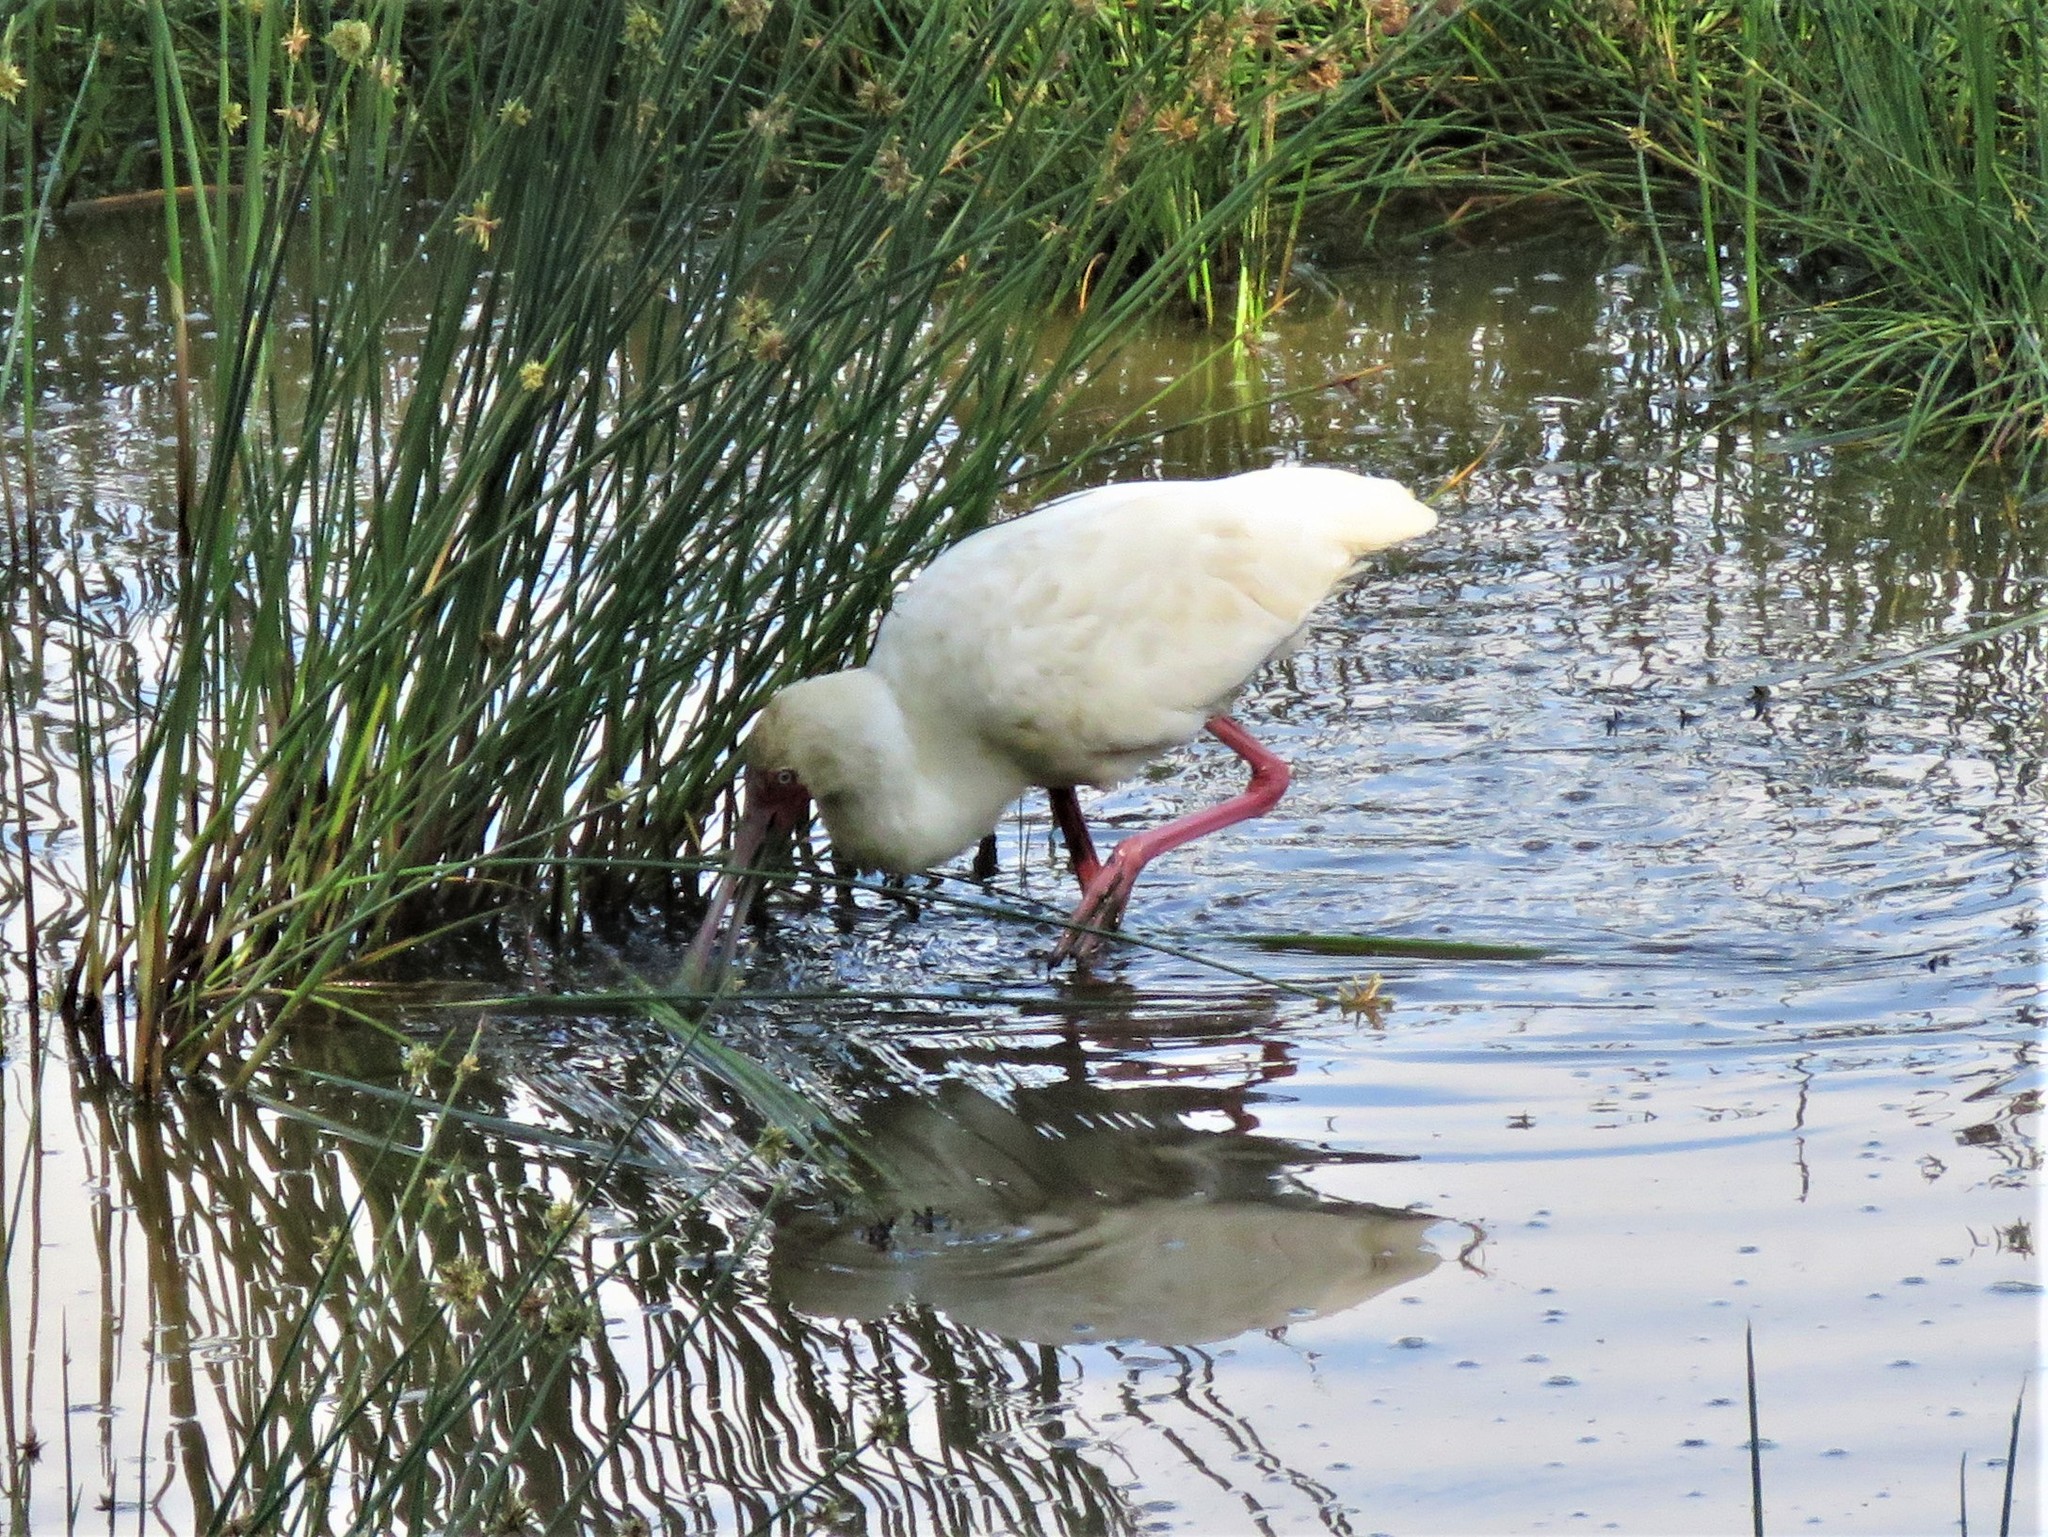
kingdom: Animalia
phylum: Chordata
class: Aves
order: Pelecaniformes
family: Threskiornithidae
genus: Platalea
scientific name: Platalea alba
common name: African spoonbill
